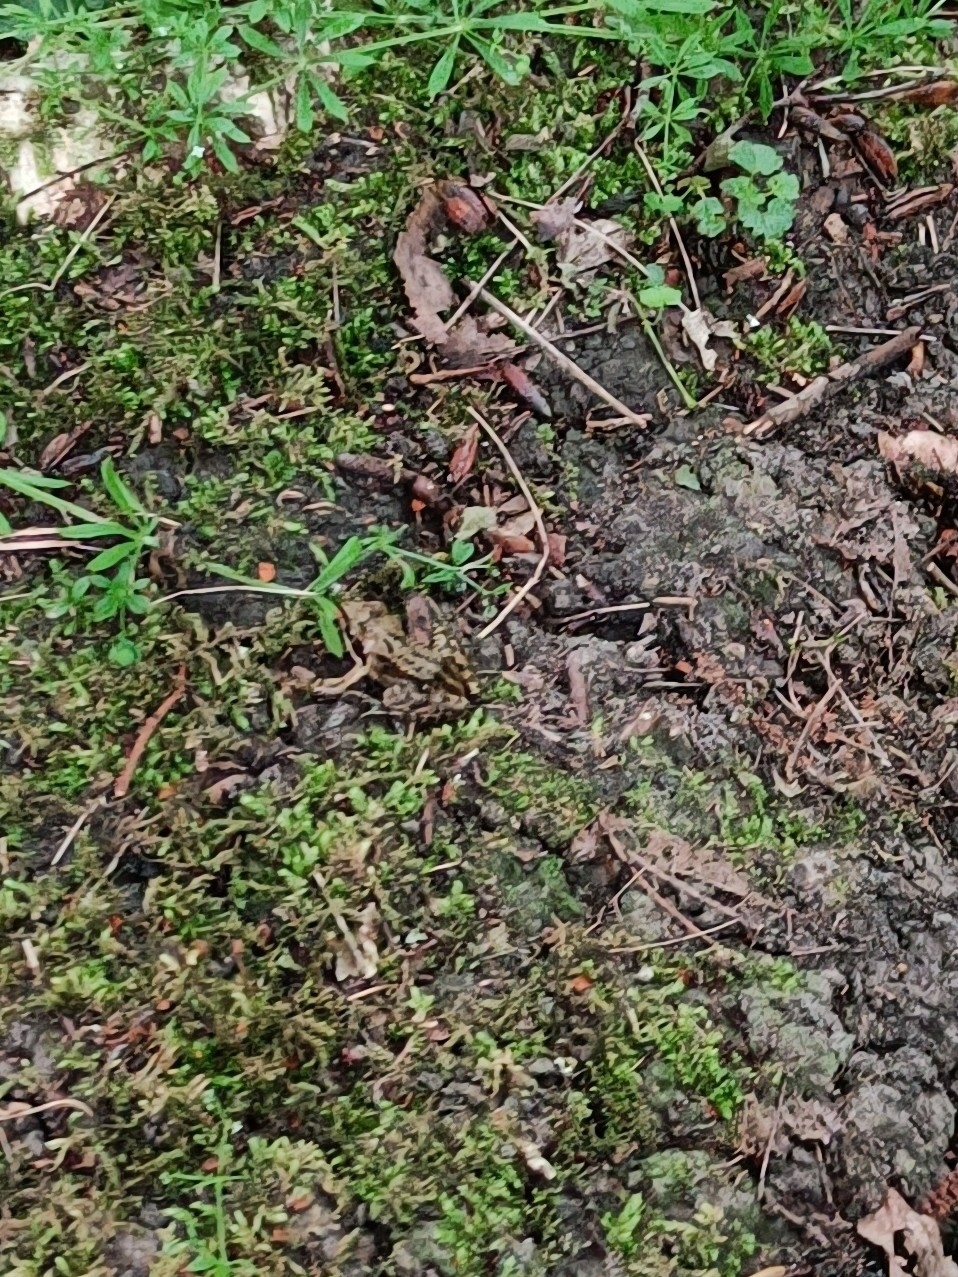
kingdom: Animalia
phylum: Chordata
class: Amphibia
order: Anura
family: Ranidae
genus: Rana
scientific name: Rana temporaria
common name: Common frog
